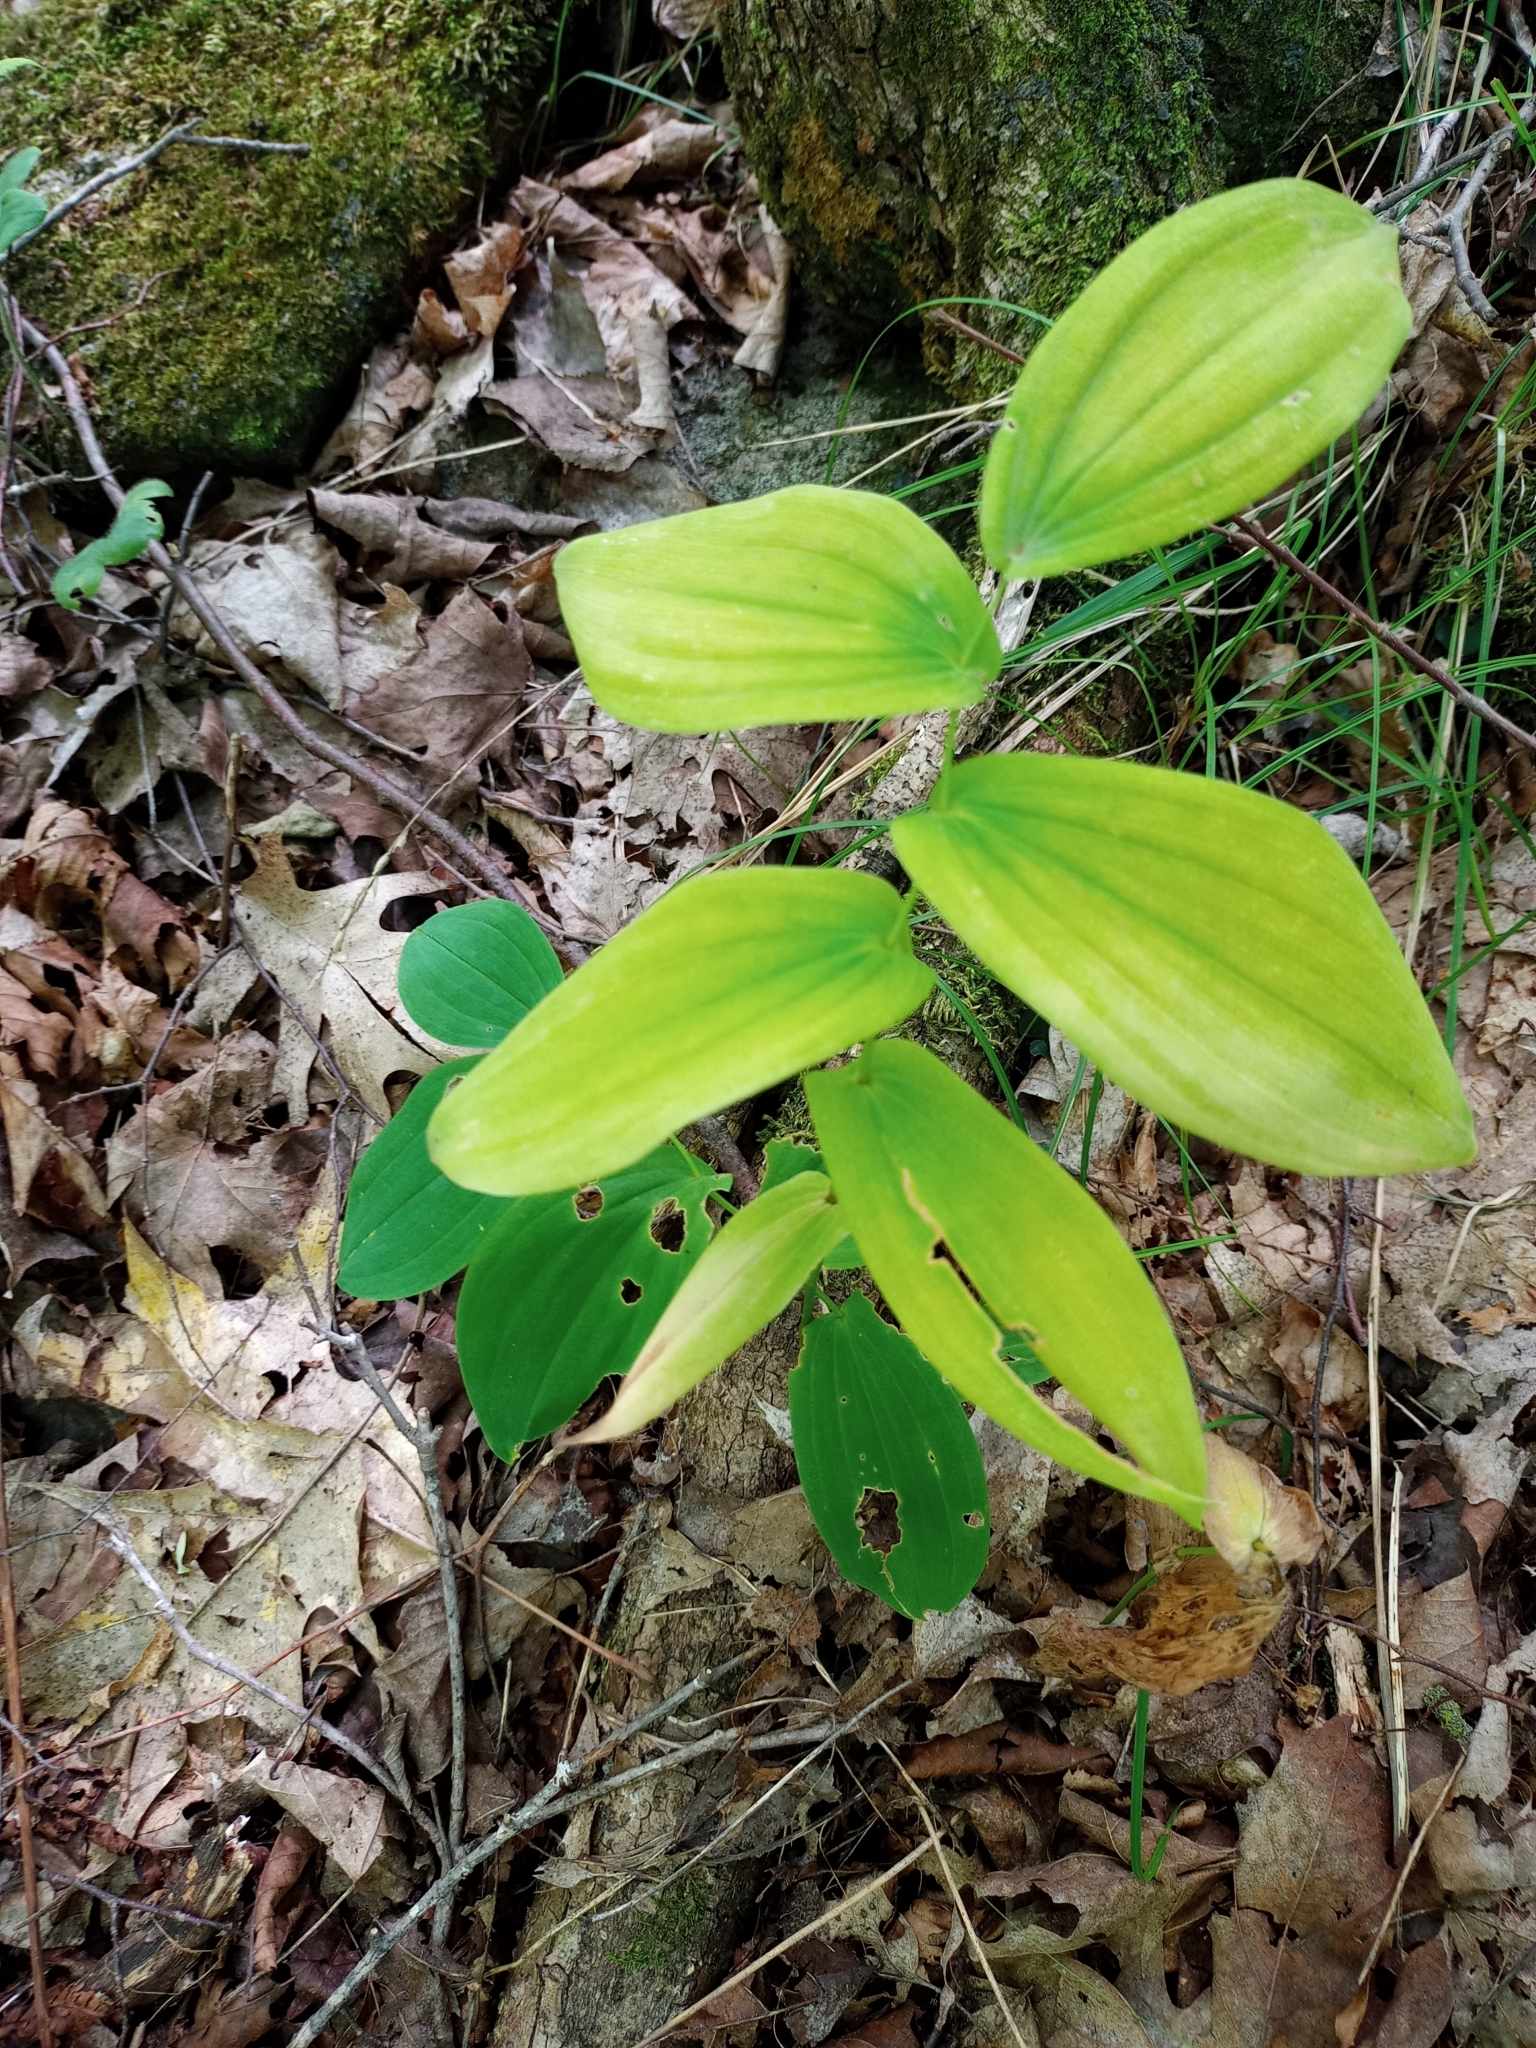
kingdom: Plantae
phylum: Tracheophyta
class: Liliopsida
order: Liliales
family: Colchicaceae
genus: Uvularia
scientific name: Uvularia grandiflora
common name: Bellwort
